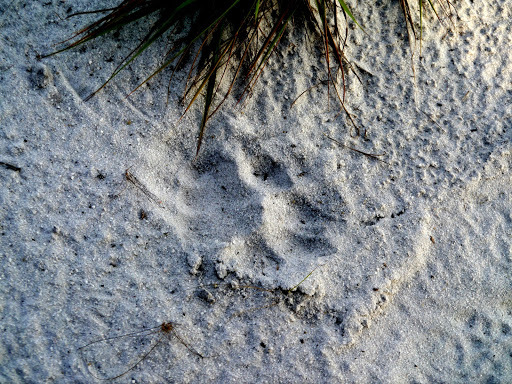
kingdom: Animalia
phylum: Chordata
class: Mammalia
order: Carnivora
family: Felidae
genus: Panthera
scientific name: Panthera pardus
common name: Leopard
